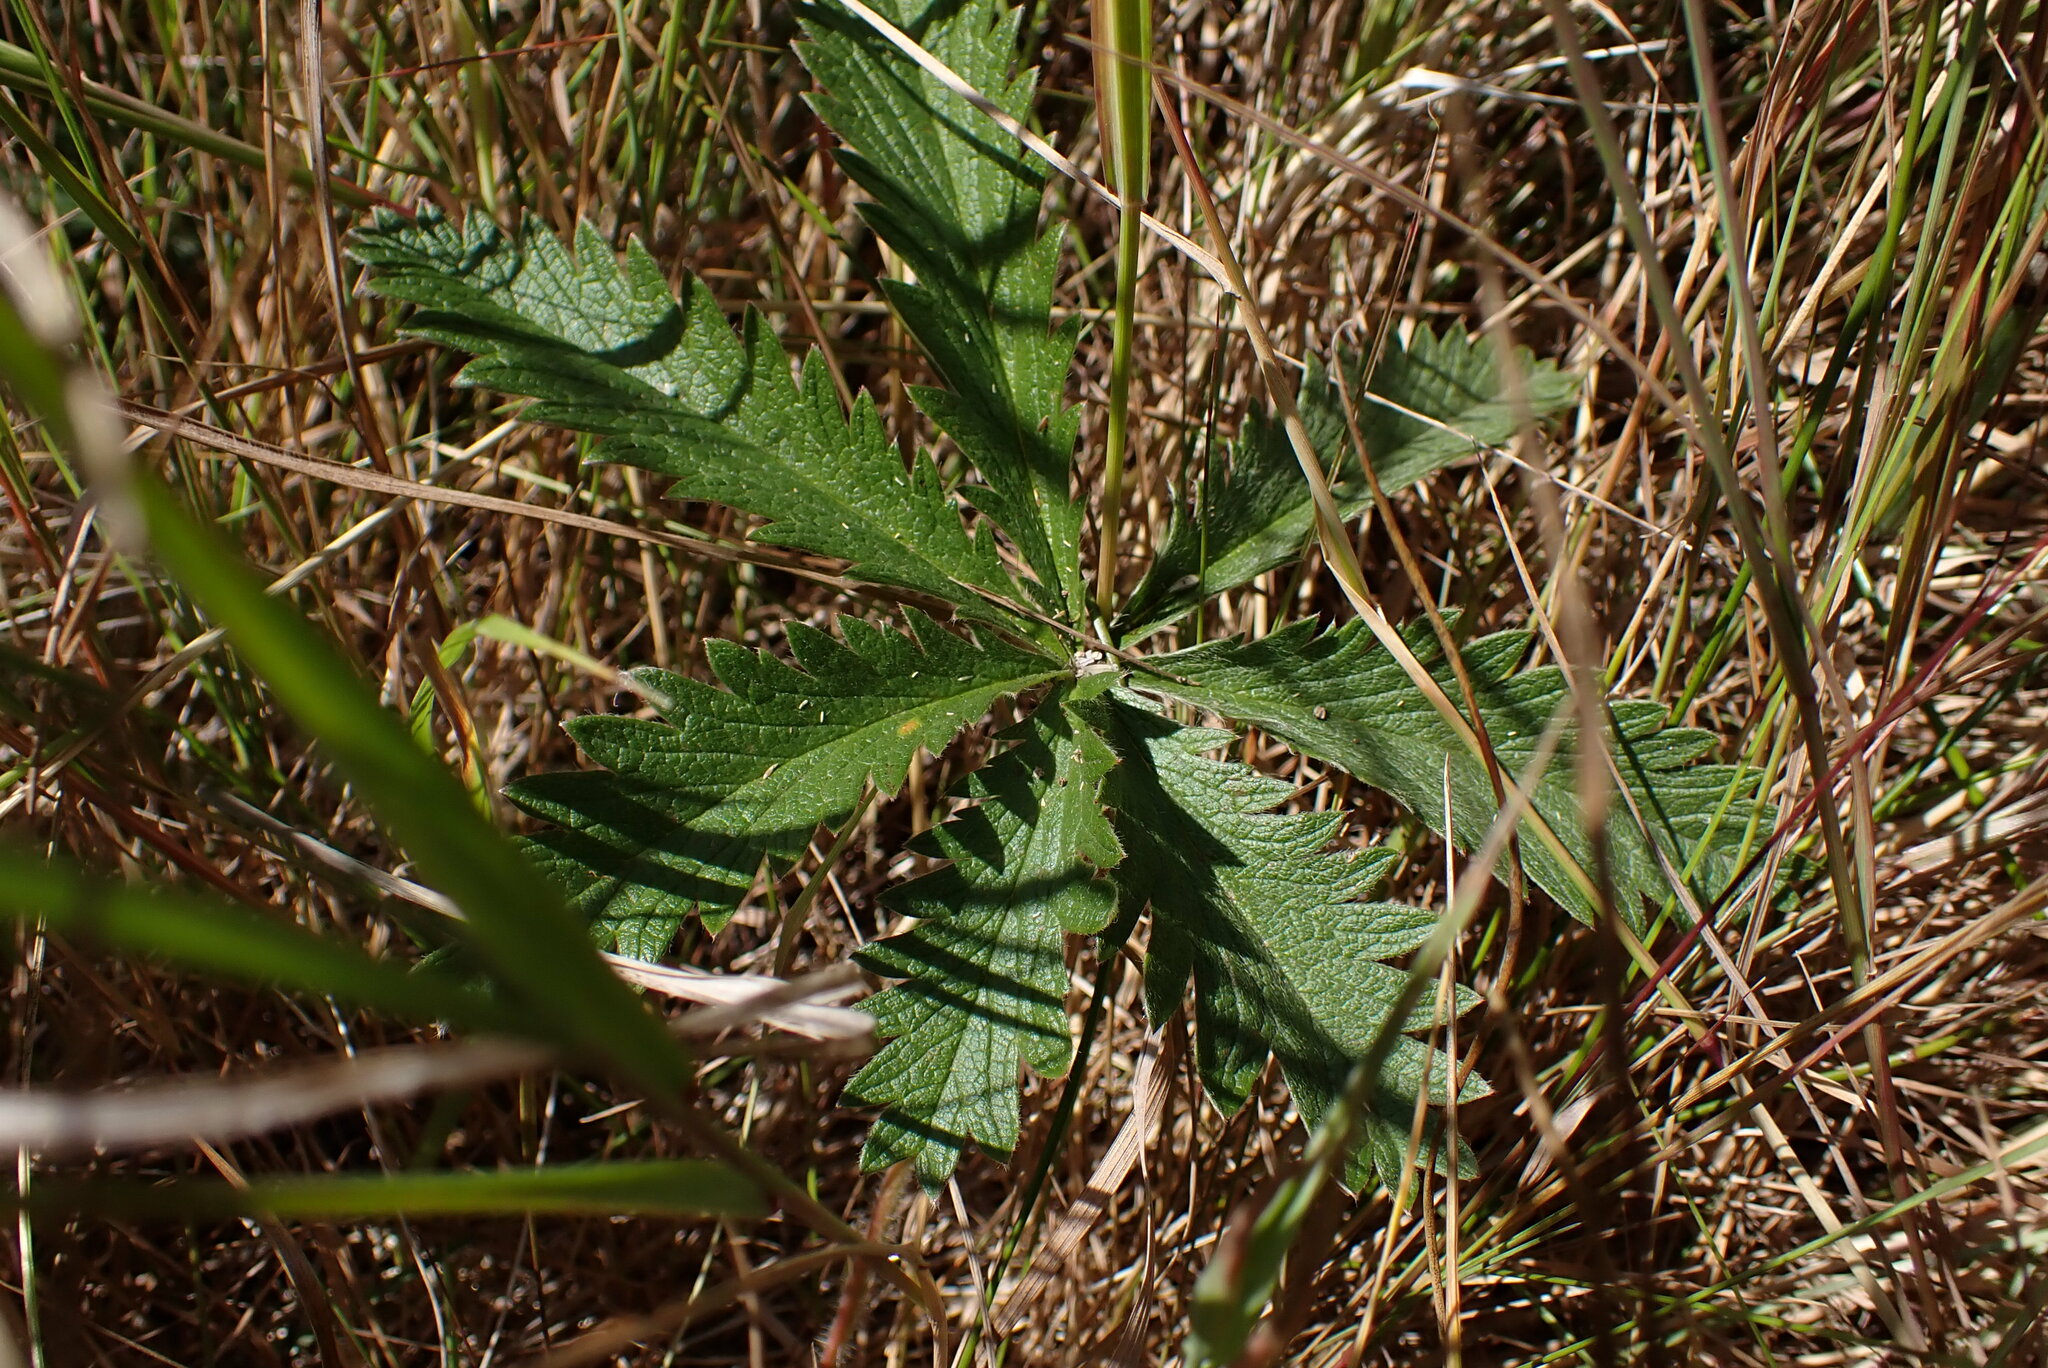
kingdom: Plantae
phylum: Tracheophyta
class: Magnoliopsida
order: Rosales
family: Rosaceae
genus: Potentilla
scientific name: Potentilla gracilis
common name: Graceful cinquefoil
